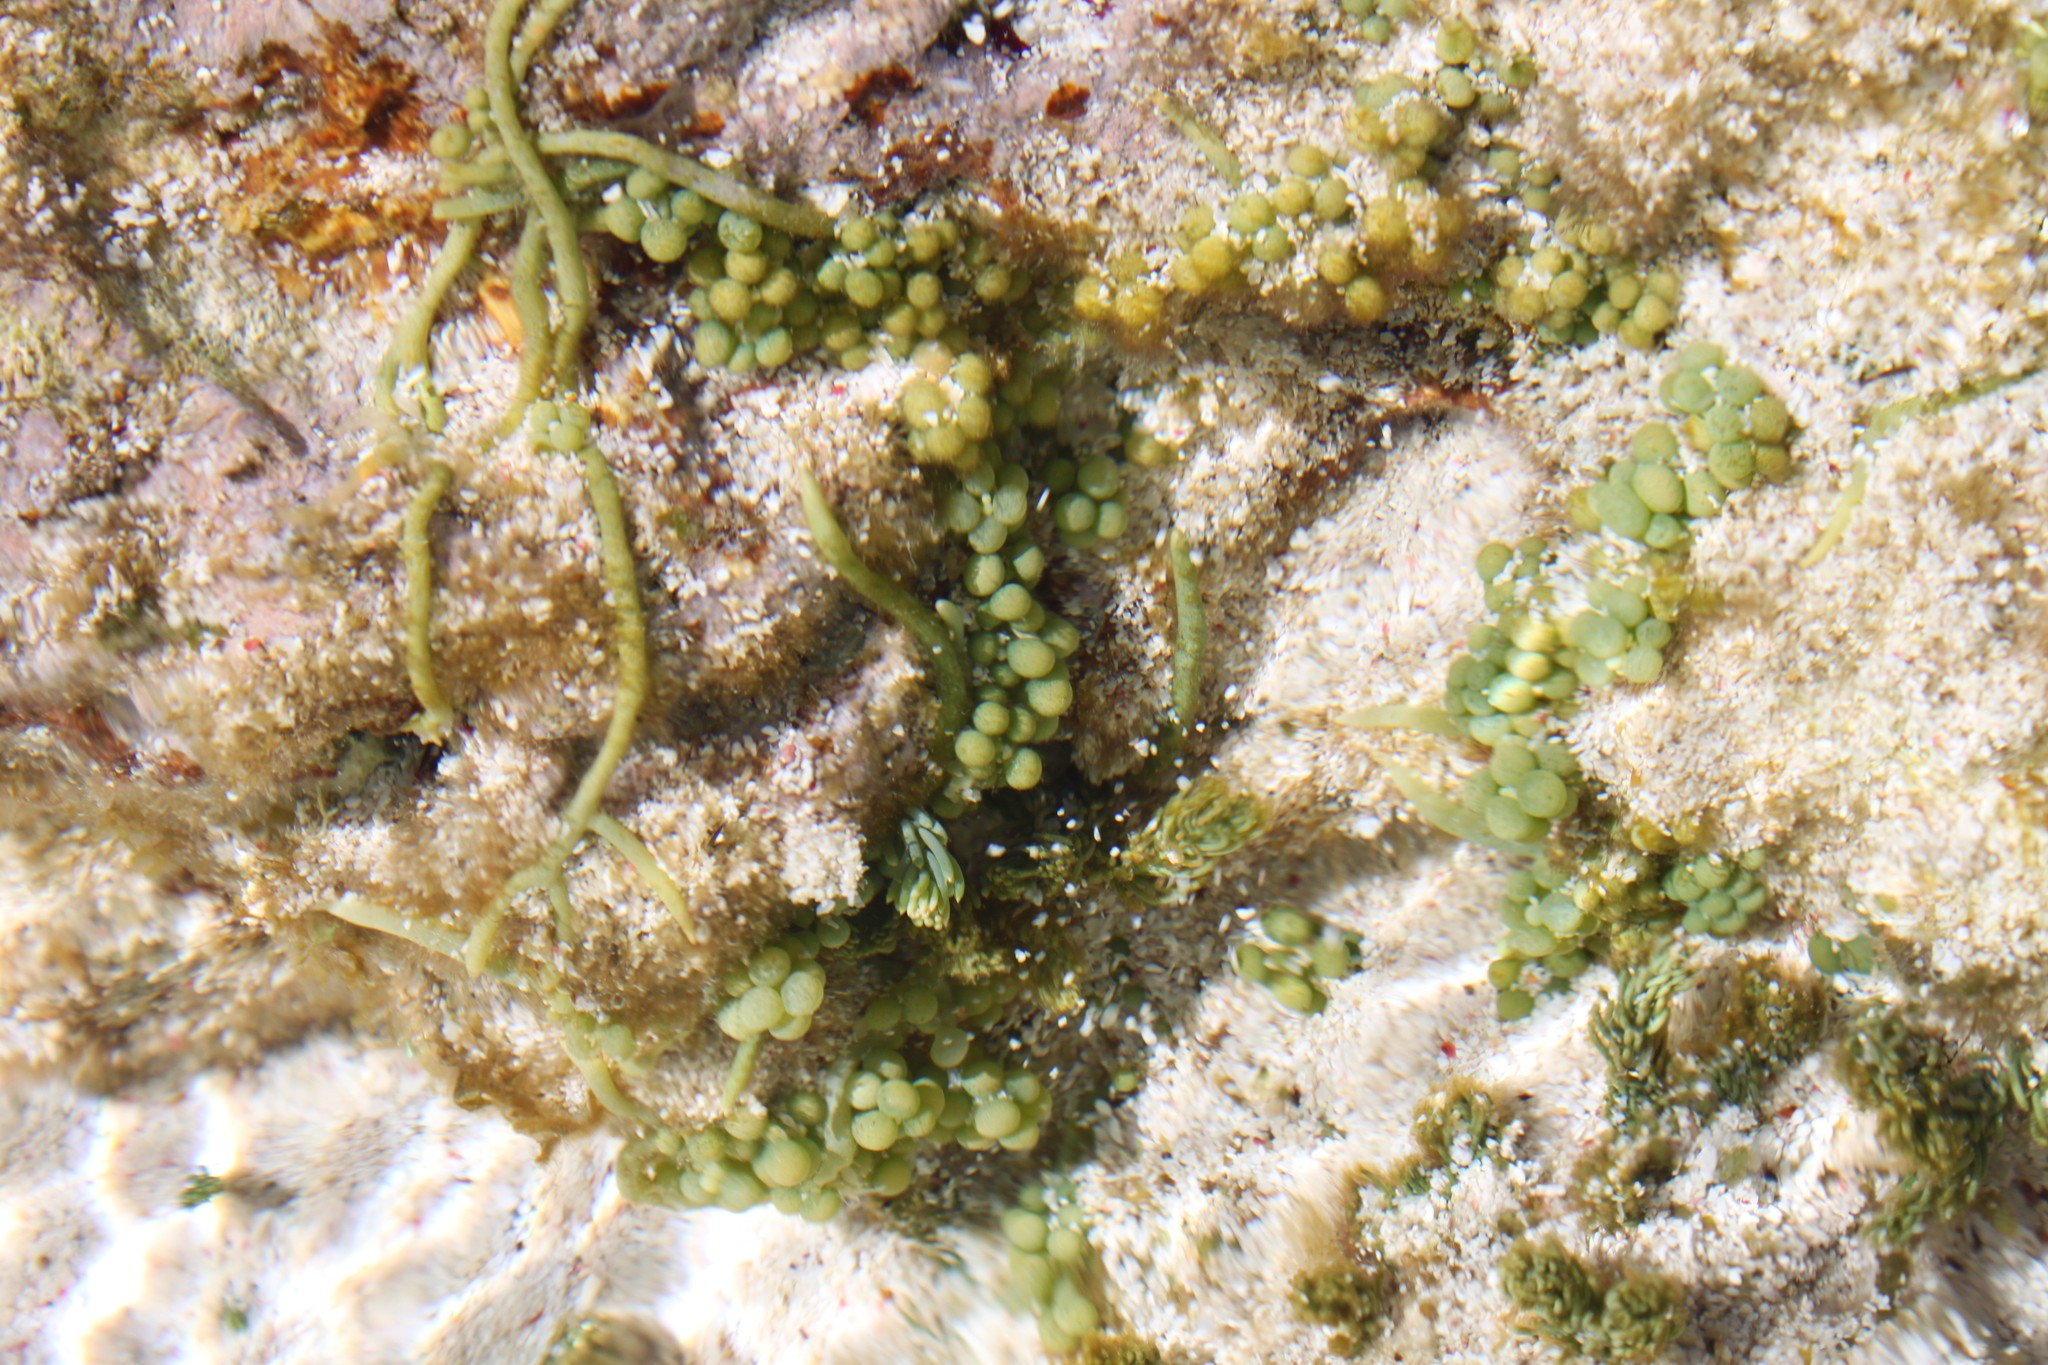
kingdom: Plantae
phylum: Chlorophyta
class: Ulvophyceae
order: Bryopsidales
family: Caulerpaceae
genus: Caulerpa
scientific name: Caulerpa racemosa
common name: Green grape algae
